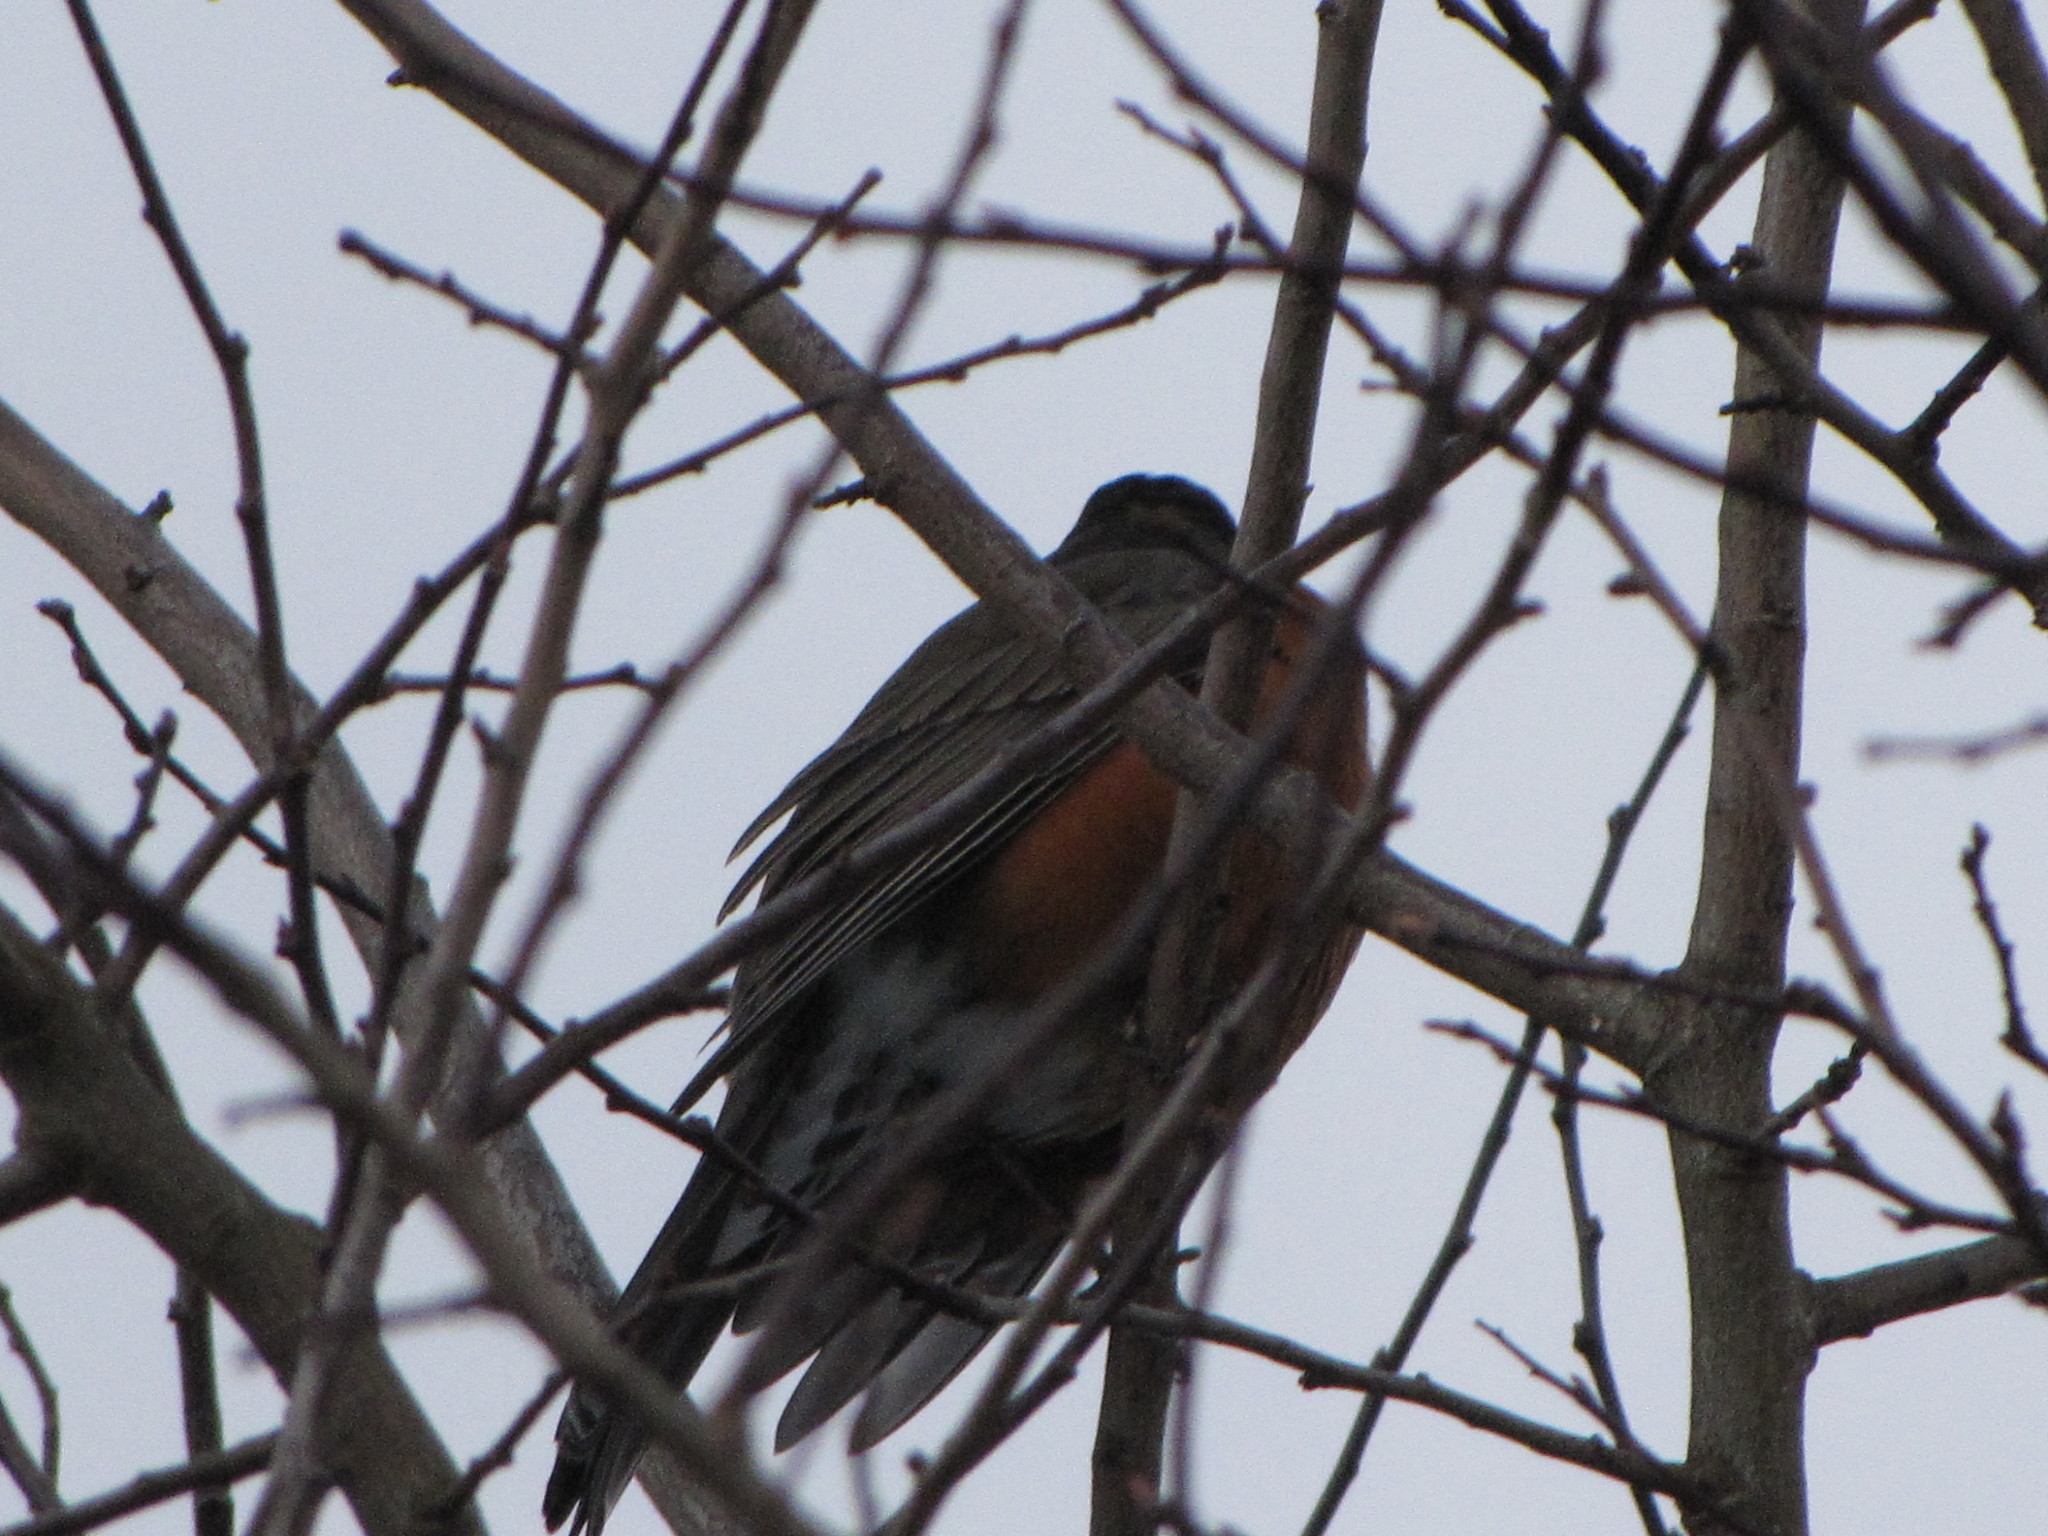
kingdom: Animalia
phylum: Chordata
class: Aves
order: Passeriformes
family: Turdidae
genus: Turdus
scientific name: Turdus migratorius
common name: American robin
